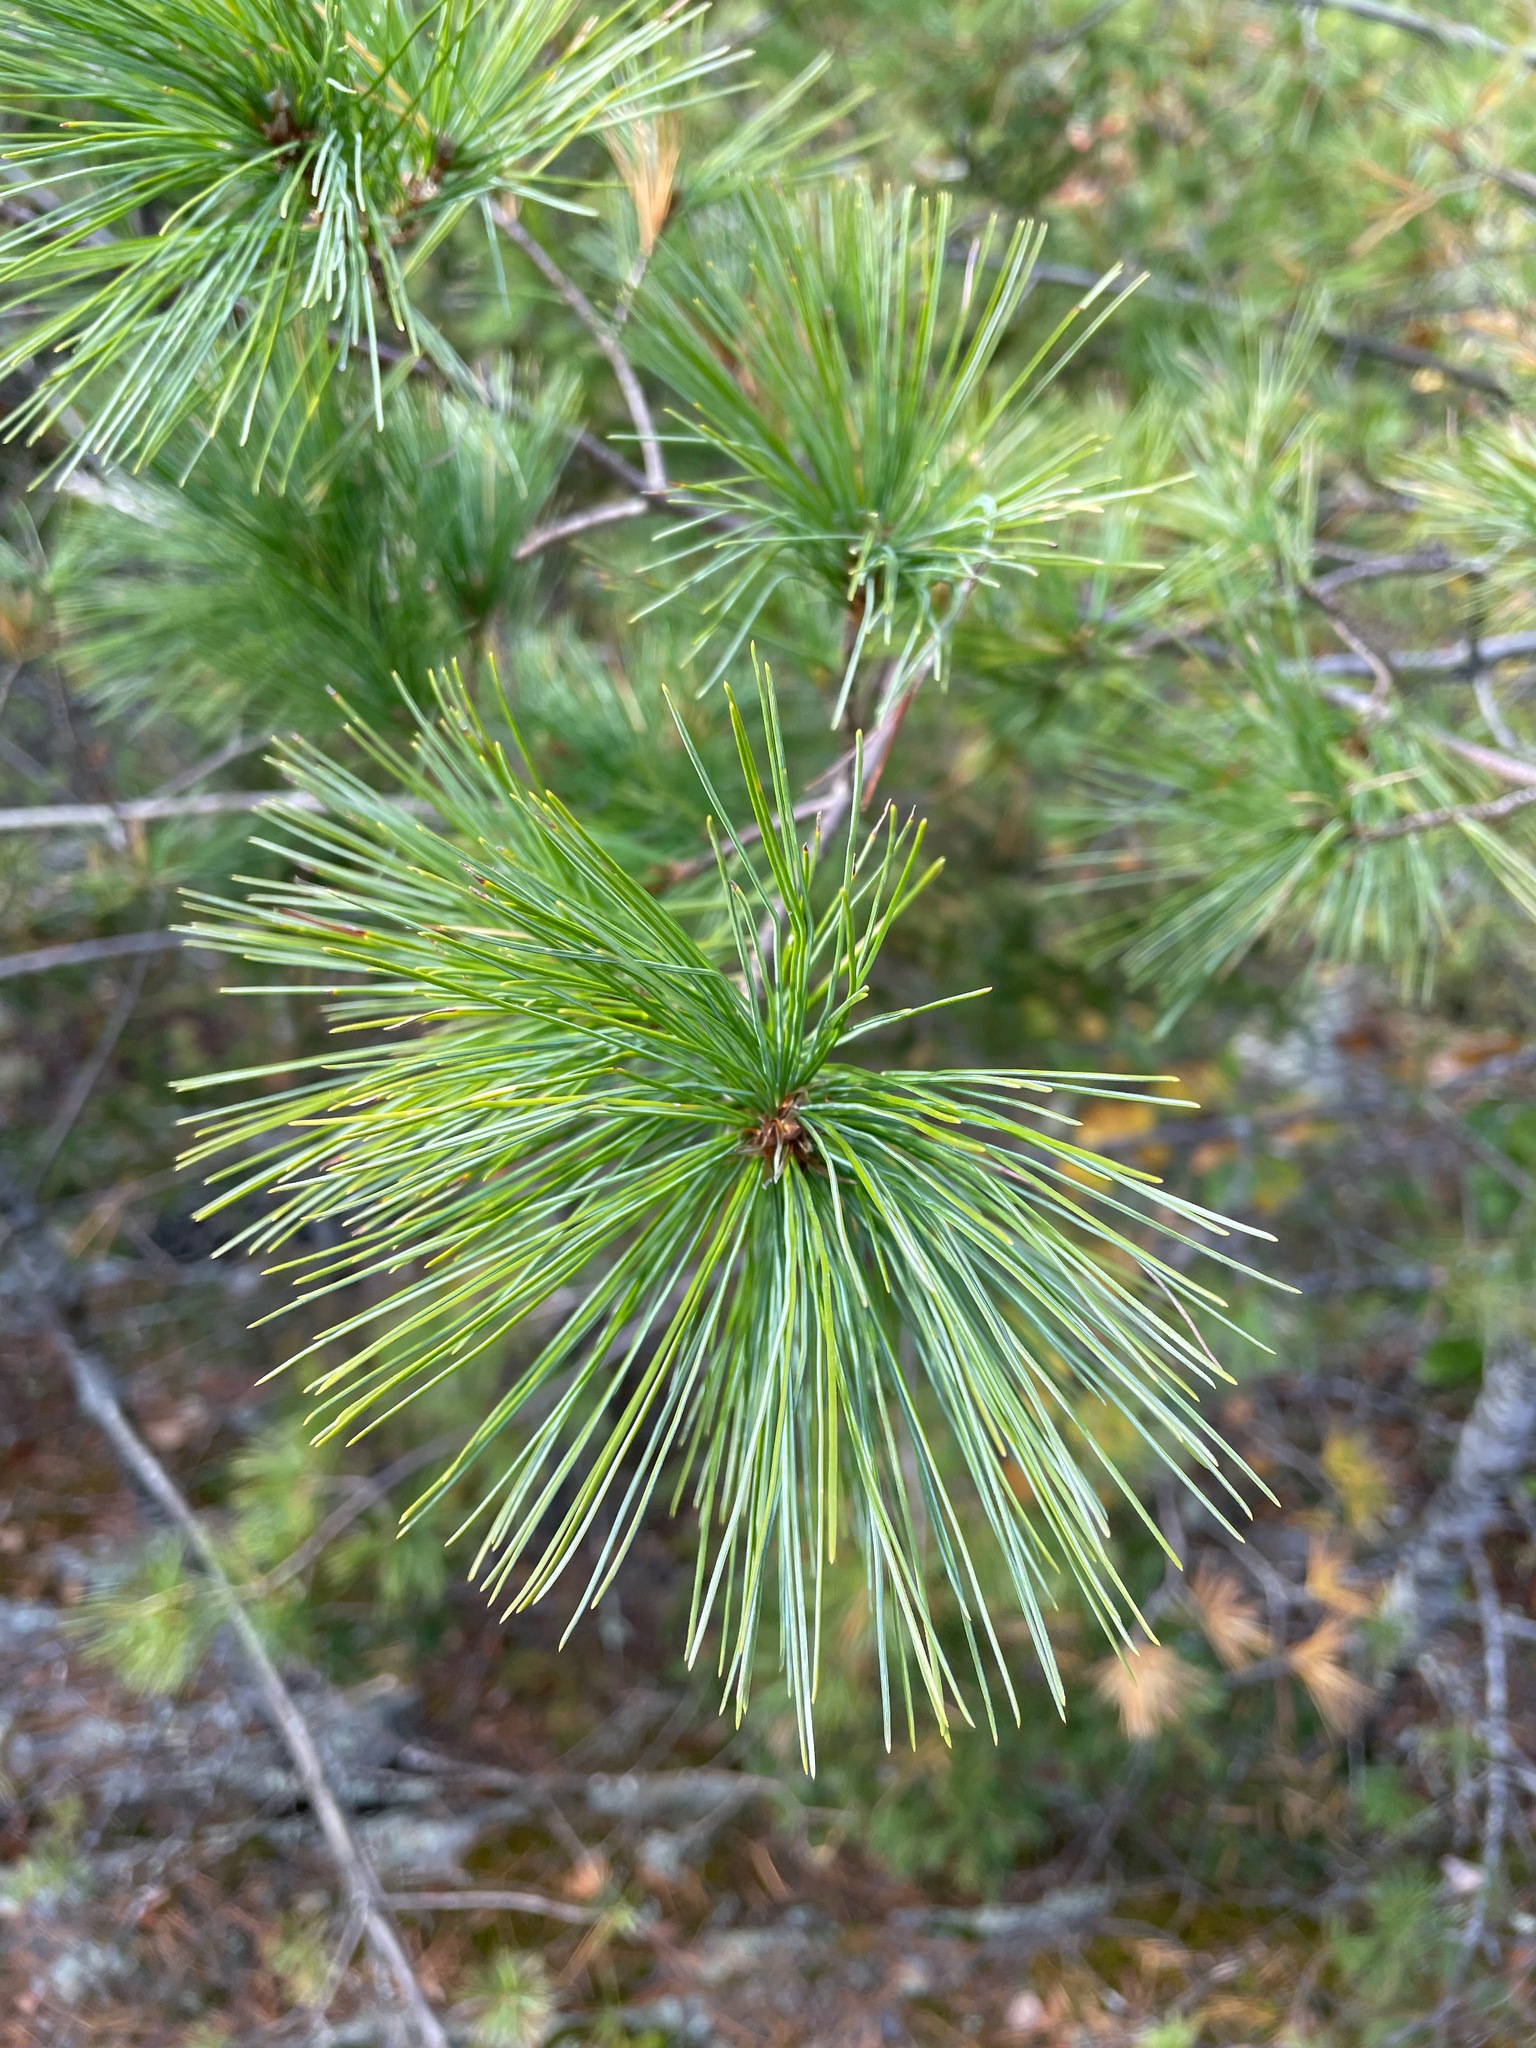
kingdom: Plantae
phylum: Tracheophyta
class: Pinopsida
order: Pinales
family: Pinaceae
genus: Pinus
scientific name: Pinus strobus
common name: Weymouth pine
